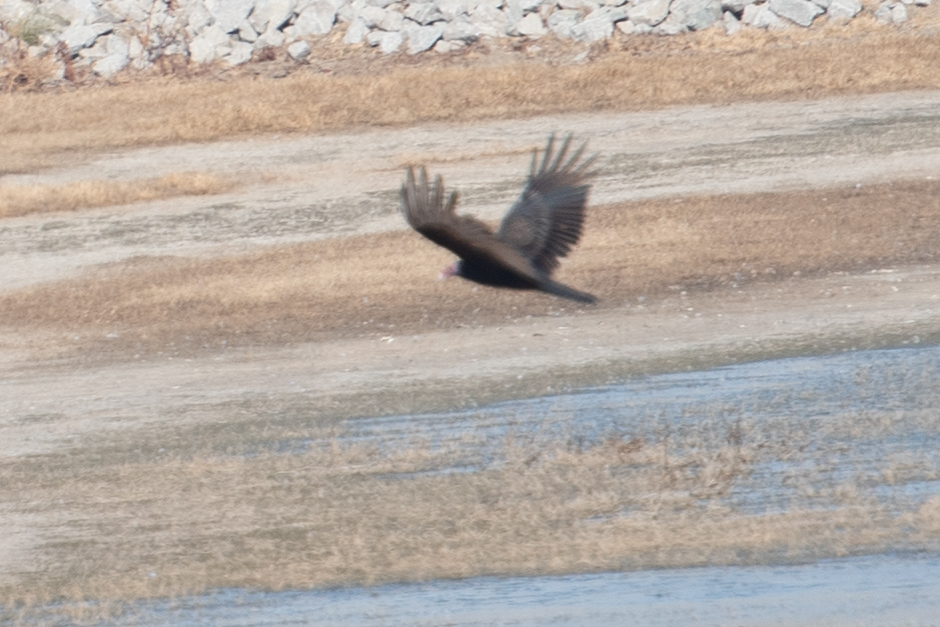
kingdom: Animalia
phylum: Chordata
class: Aves
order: Accipitriformes
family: Cathartidae
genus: Cathartes
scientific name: Cathartes aura
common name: Turkey vulture
